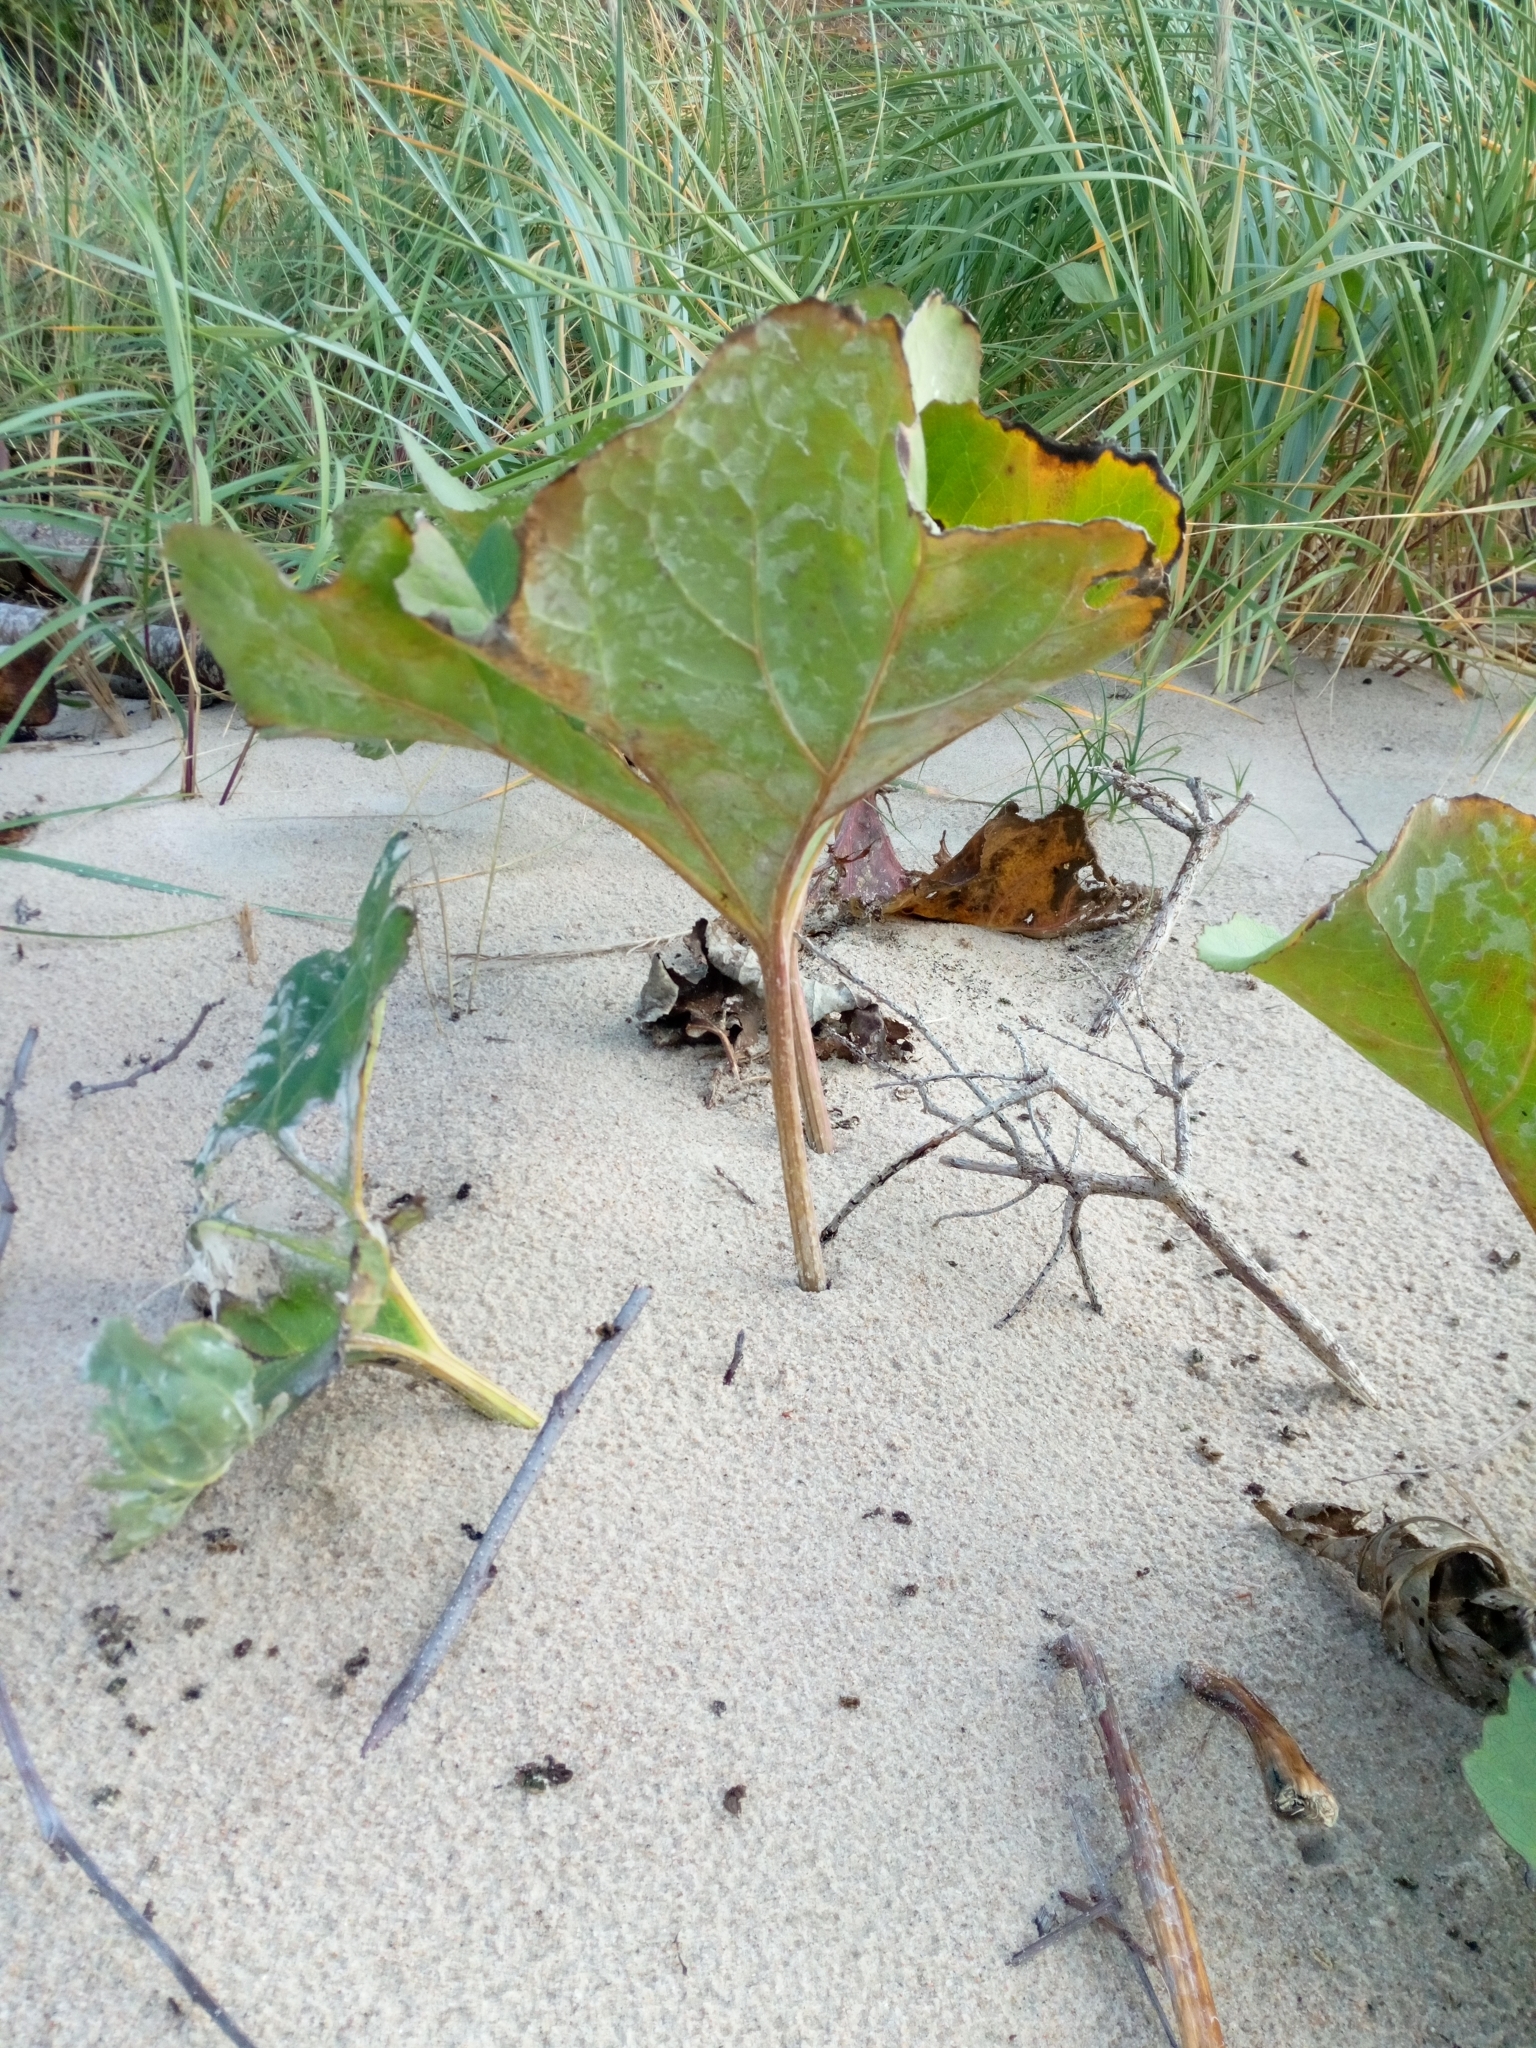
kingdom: Plantae
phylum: Tracheophyta
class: Magnoliopsida
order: Asterales
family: Asteraceae
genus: Petasites
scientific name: Petasites spurius
